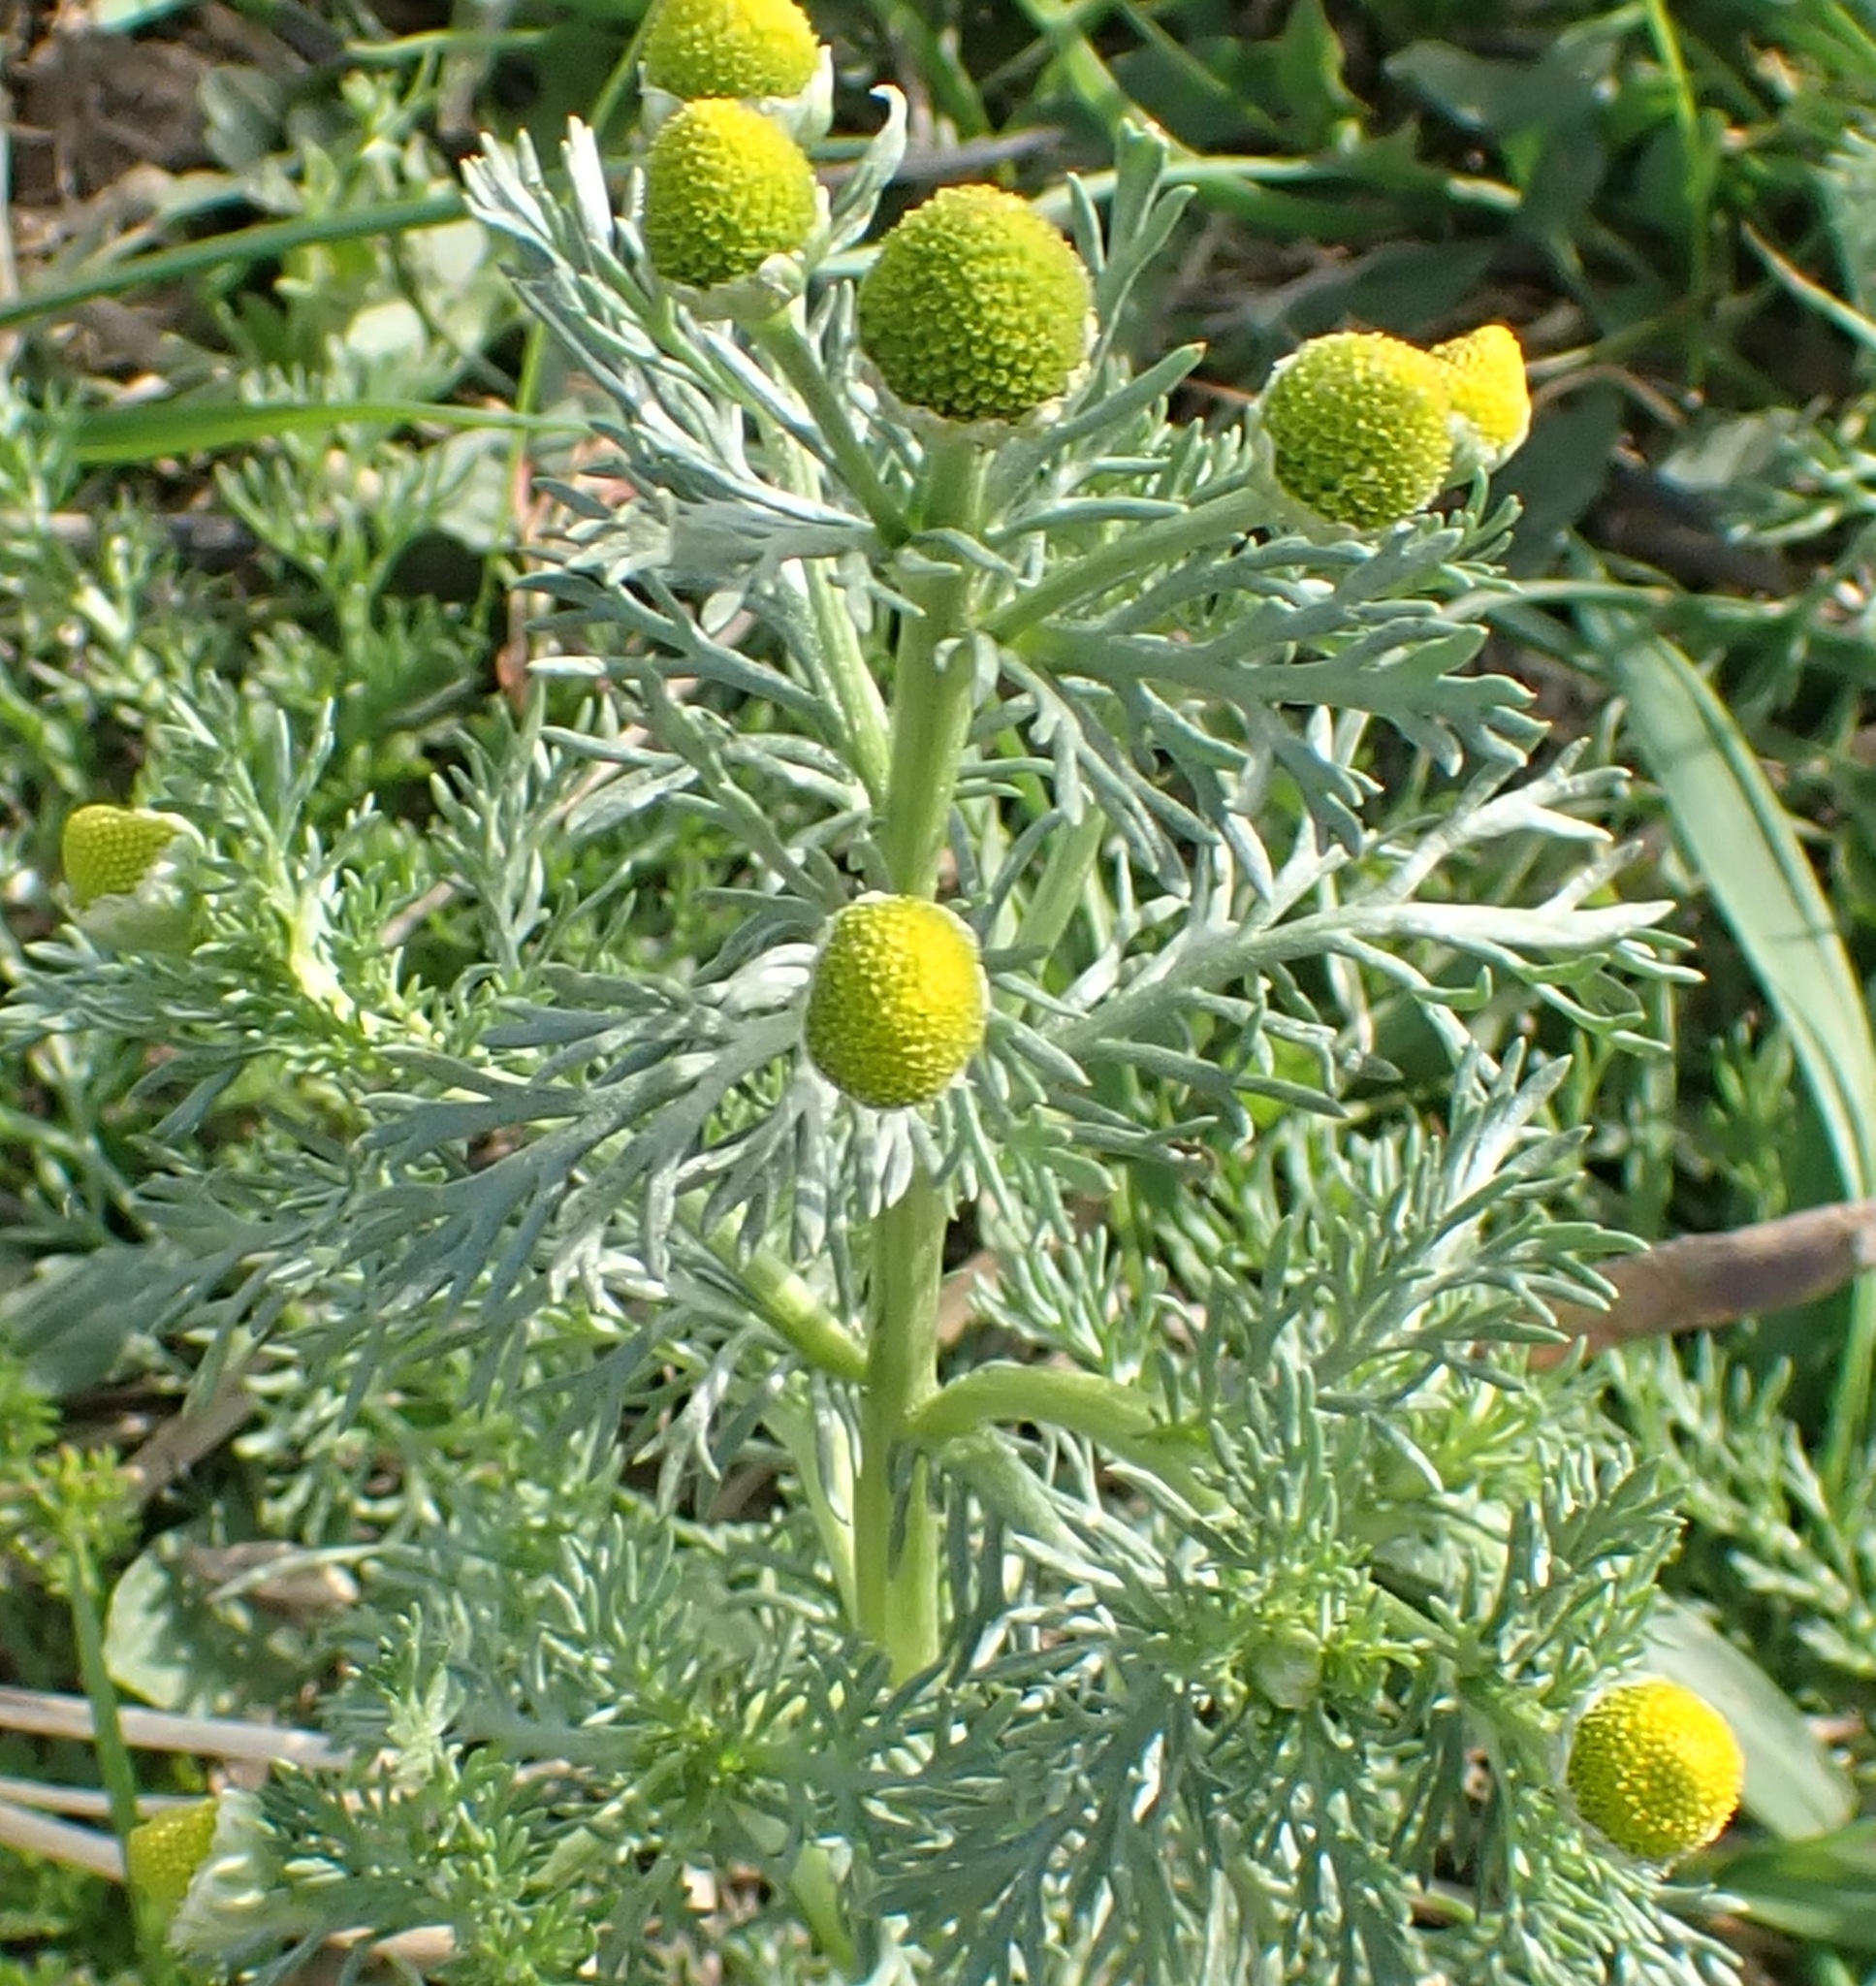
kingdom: Plantae
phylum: Tracheophyta
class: Magnoliopsida
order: Asterales
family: Asteraceae
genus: Matricaria
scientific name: Matricaria discoidea
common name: Disc mayweed
